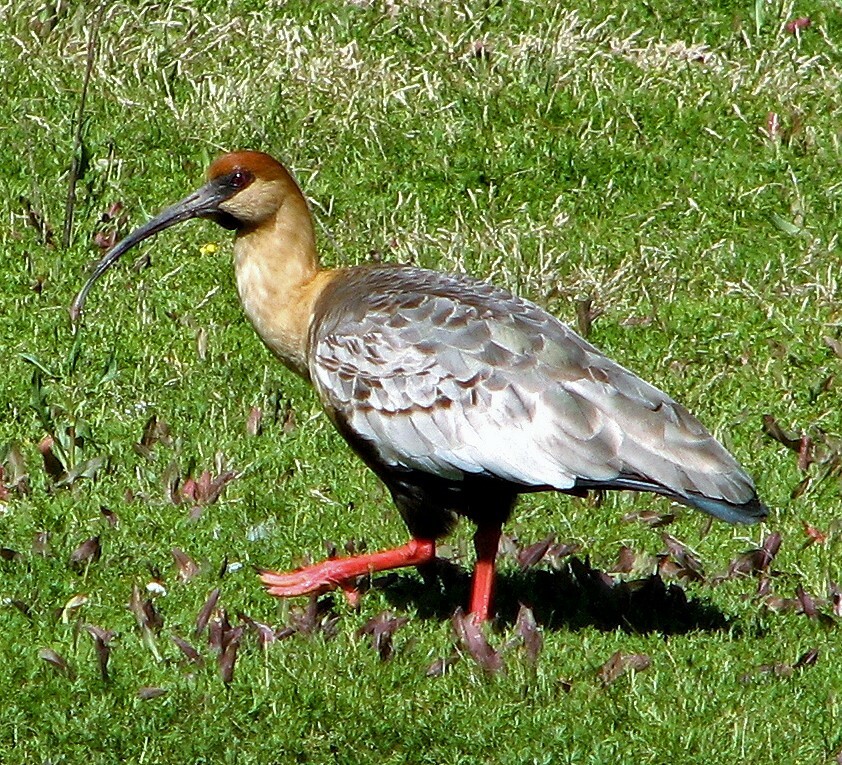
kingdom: Animalia
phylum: Chordata
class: Aves
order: Pelecaniformes
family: Threskiornithidae
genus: Theristicus
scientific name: Theristicus melanopis
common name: Black-faced ibis
